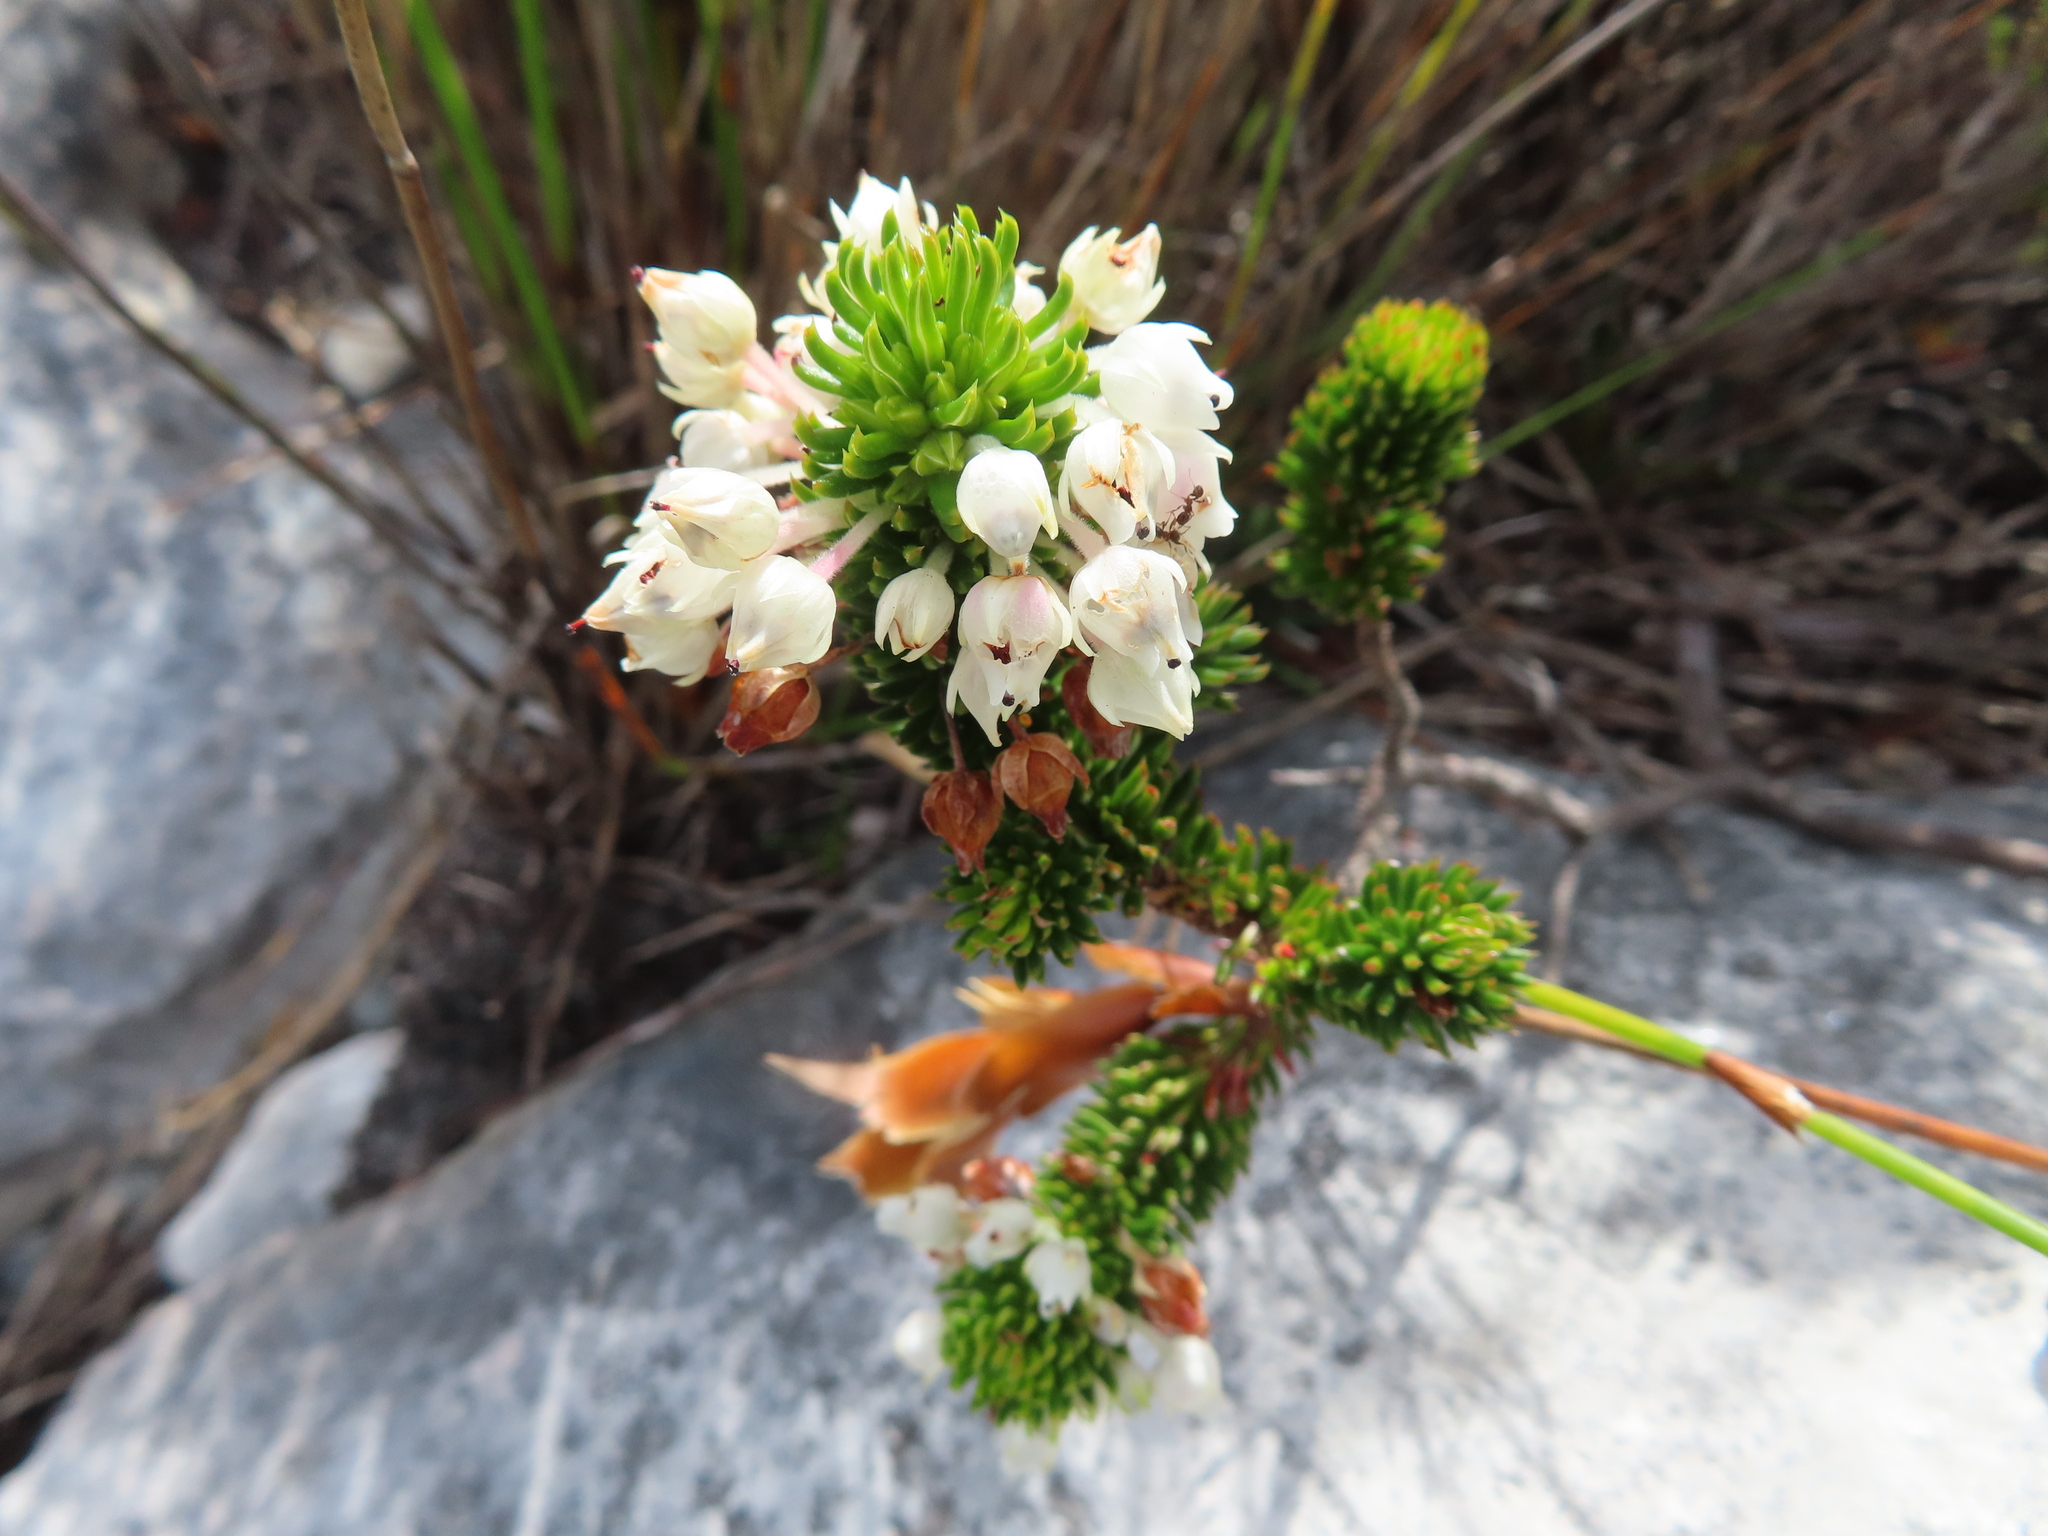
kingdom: Plantae
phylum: Tracheophyta
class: Magnoliopsida
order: Ericales
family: Ericaceae
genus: Erica
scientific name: Erica pulvinata
